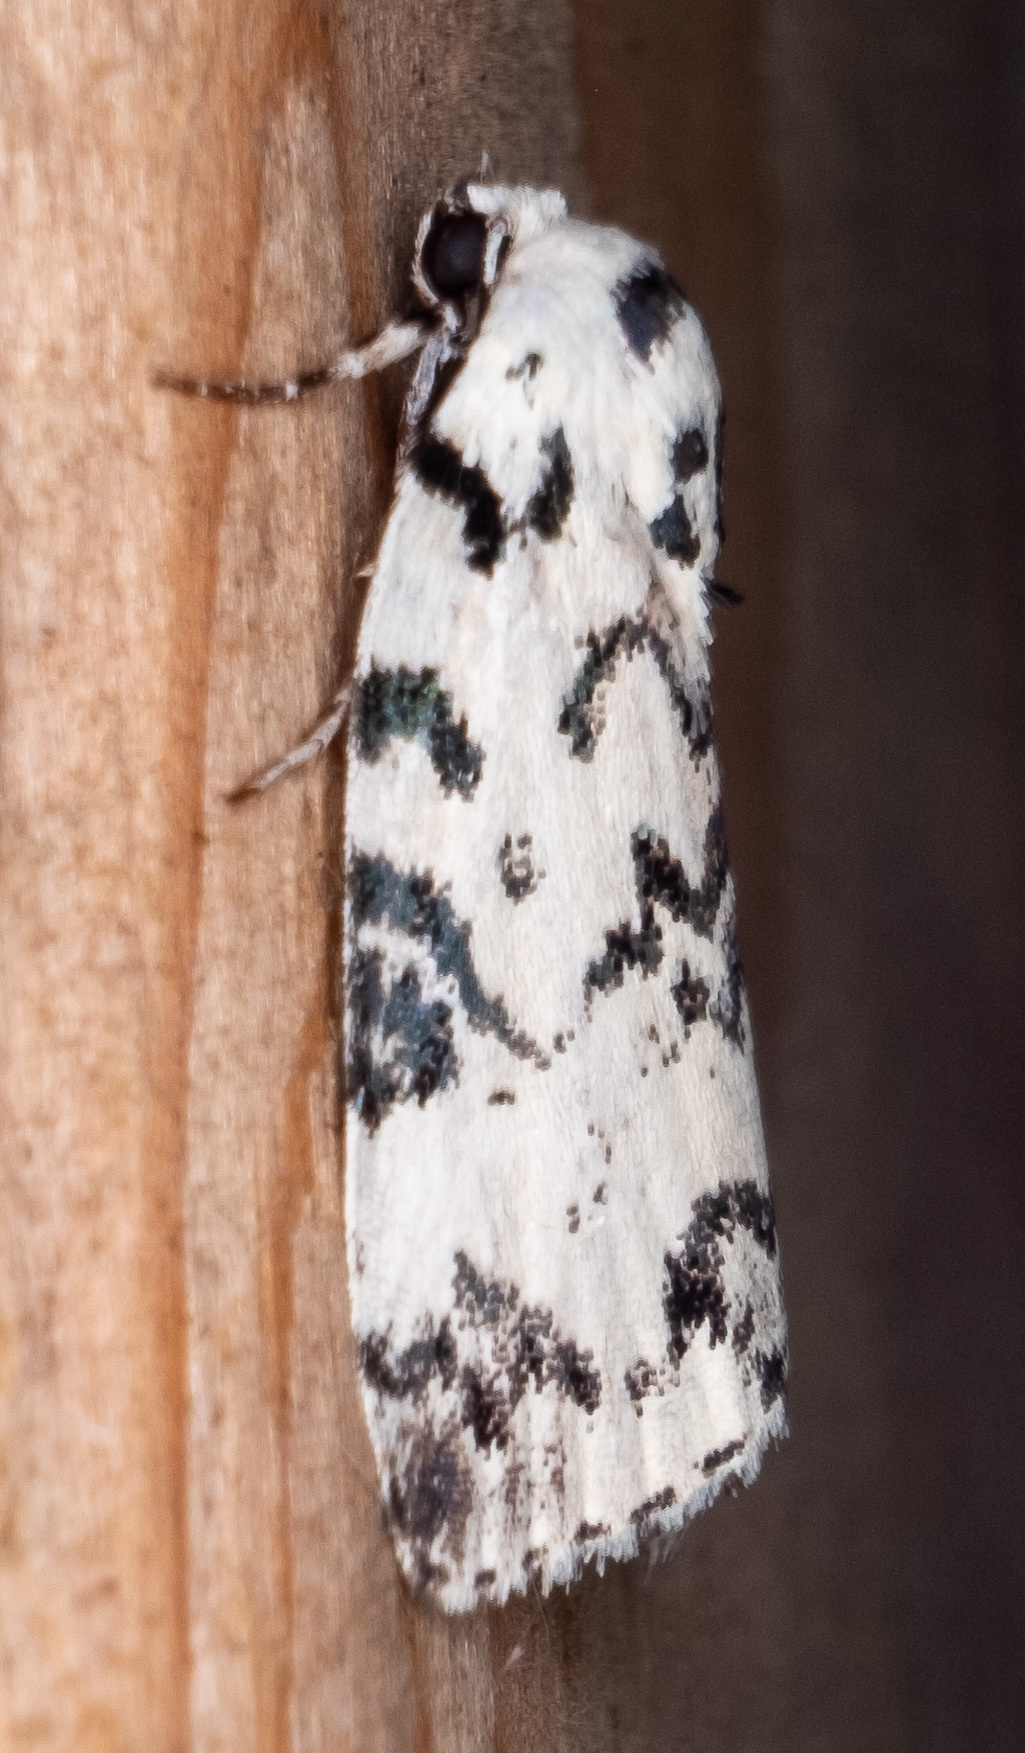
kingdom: Animalia
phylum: Arthropoda
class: Insecta
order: Lepidoptera
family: Noctuidae
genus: Polygrammate
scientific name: Polygrammate hebraeicum
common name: Hebrew moth
